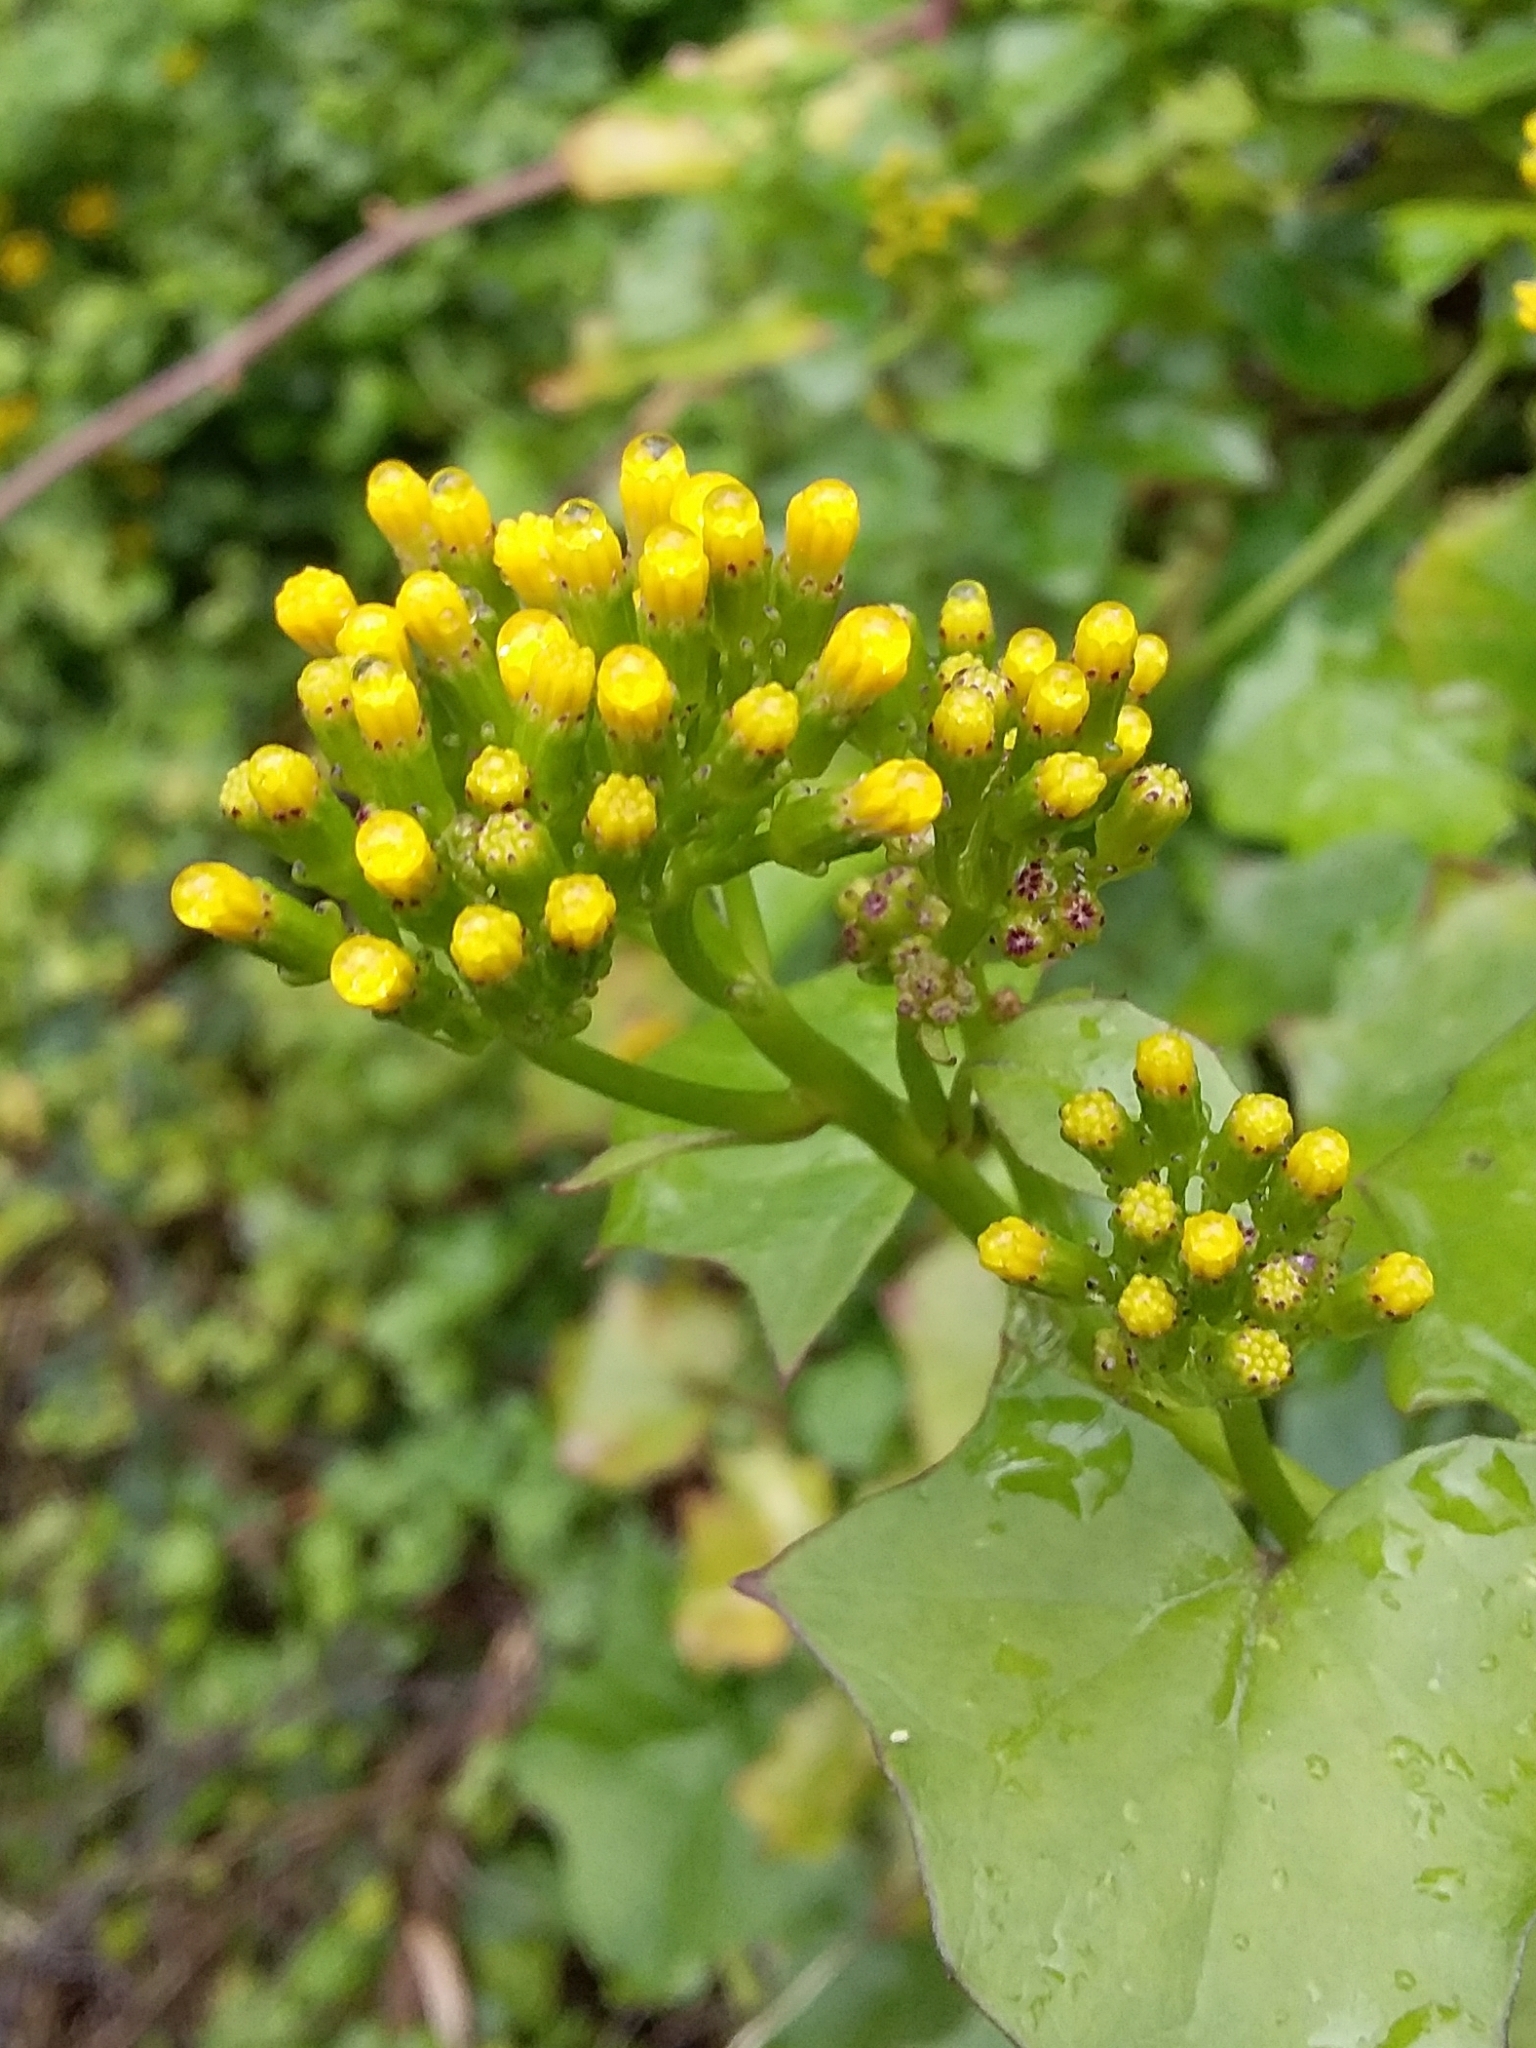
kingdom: Plantae
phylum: Tracheophyta
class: Magnoliopsida
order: Asterales
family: Asteraceae
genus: Delairea
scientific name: Delairea odorata
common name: Cape-ivy
